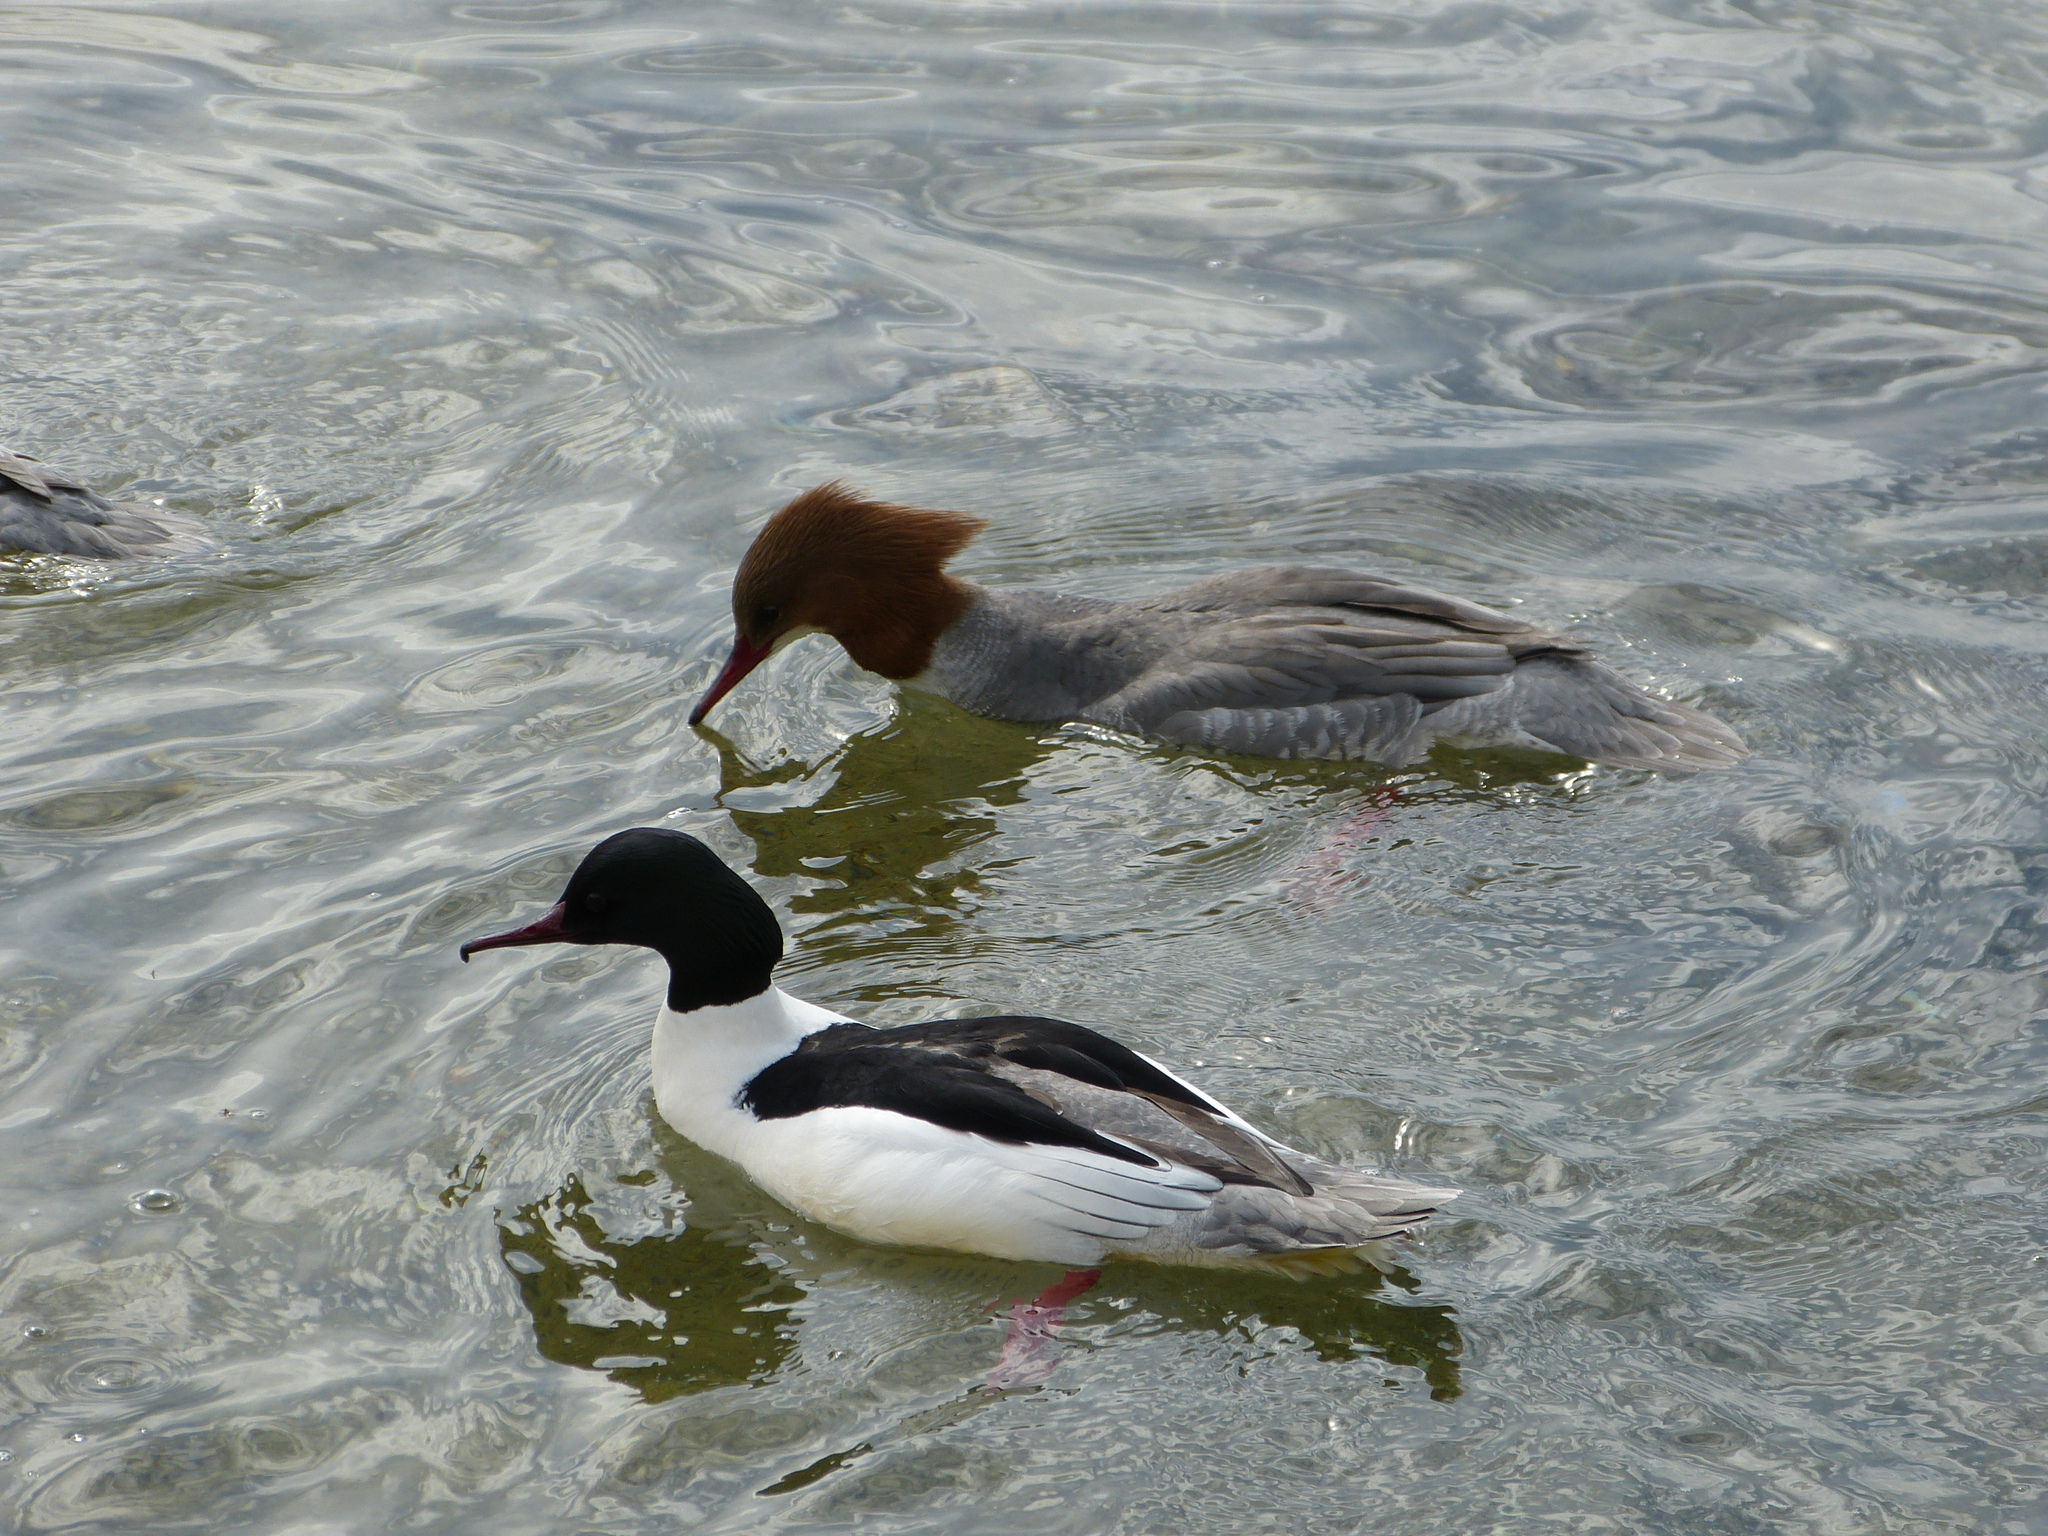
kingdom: Animalia
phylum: Chordata
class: Aves
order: Anseriformes
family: Anatidae
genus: Mergus
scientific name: Mergus merganser
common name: Common merganser
